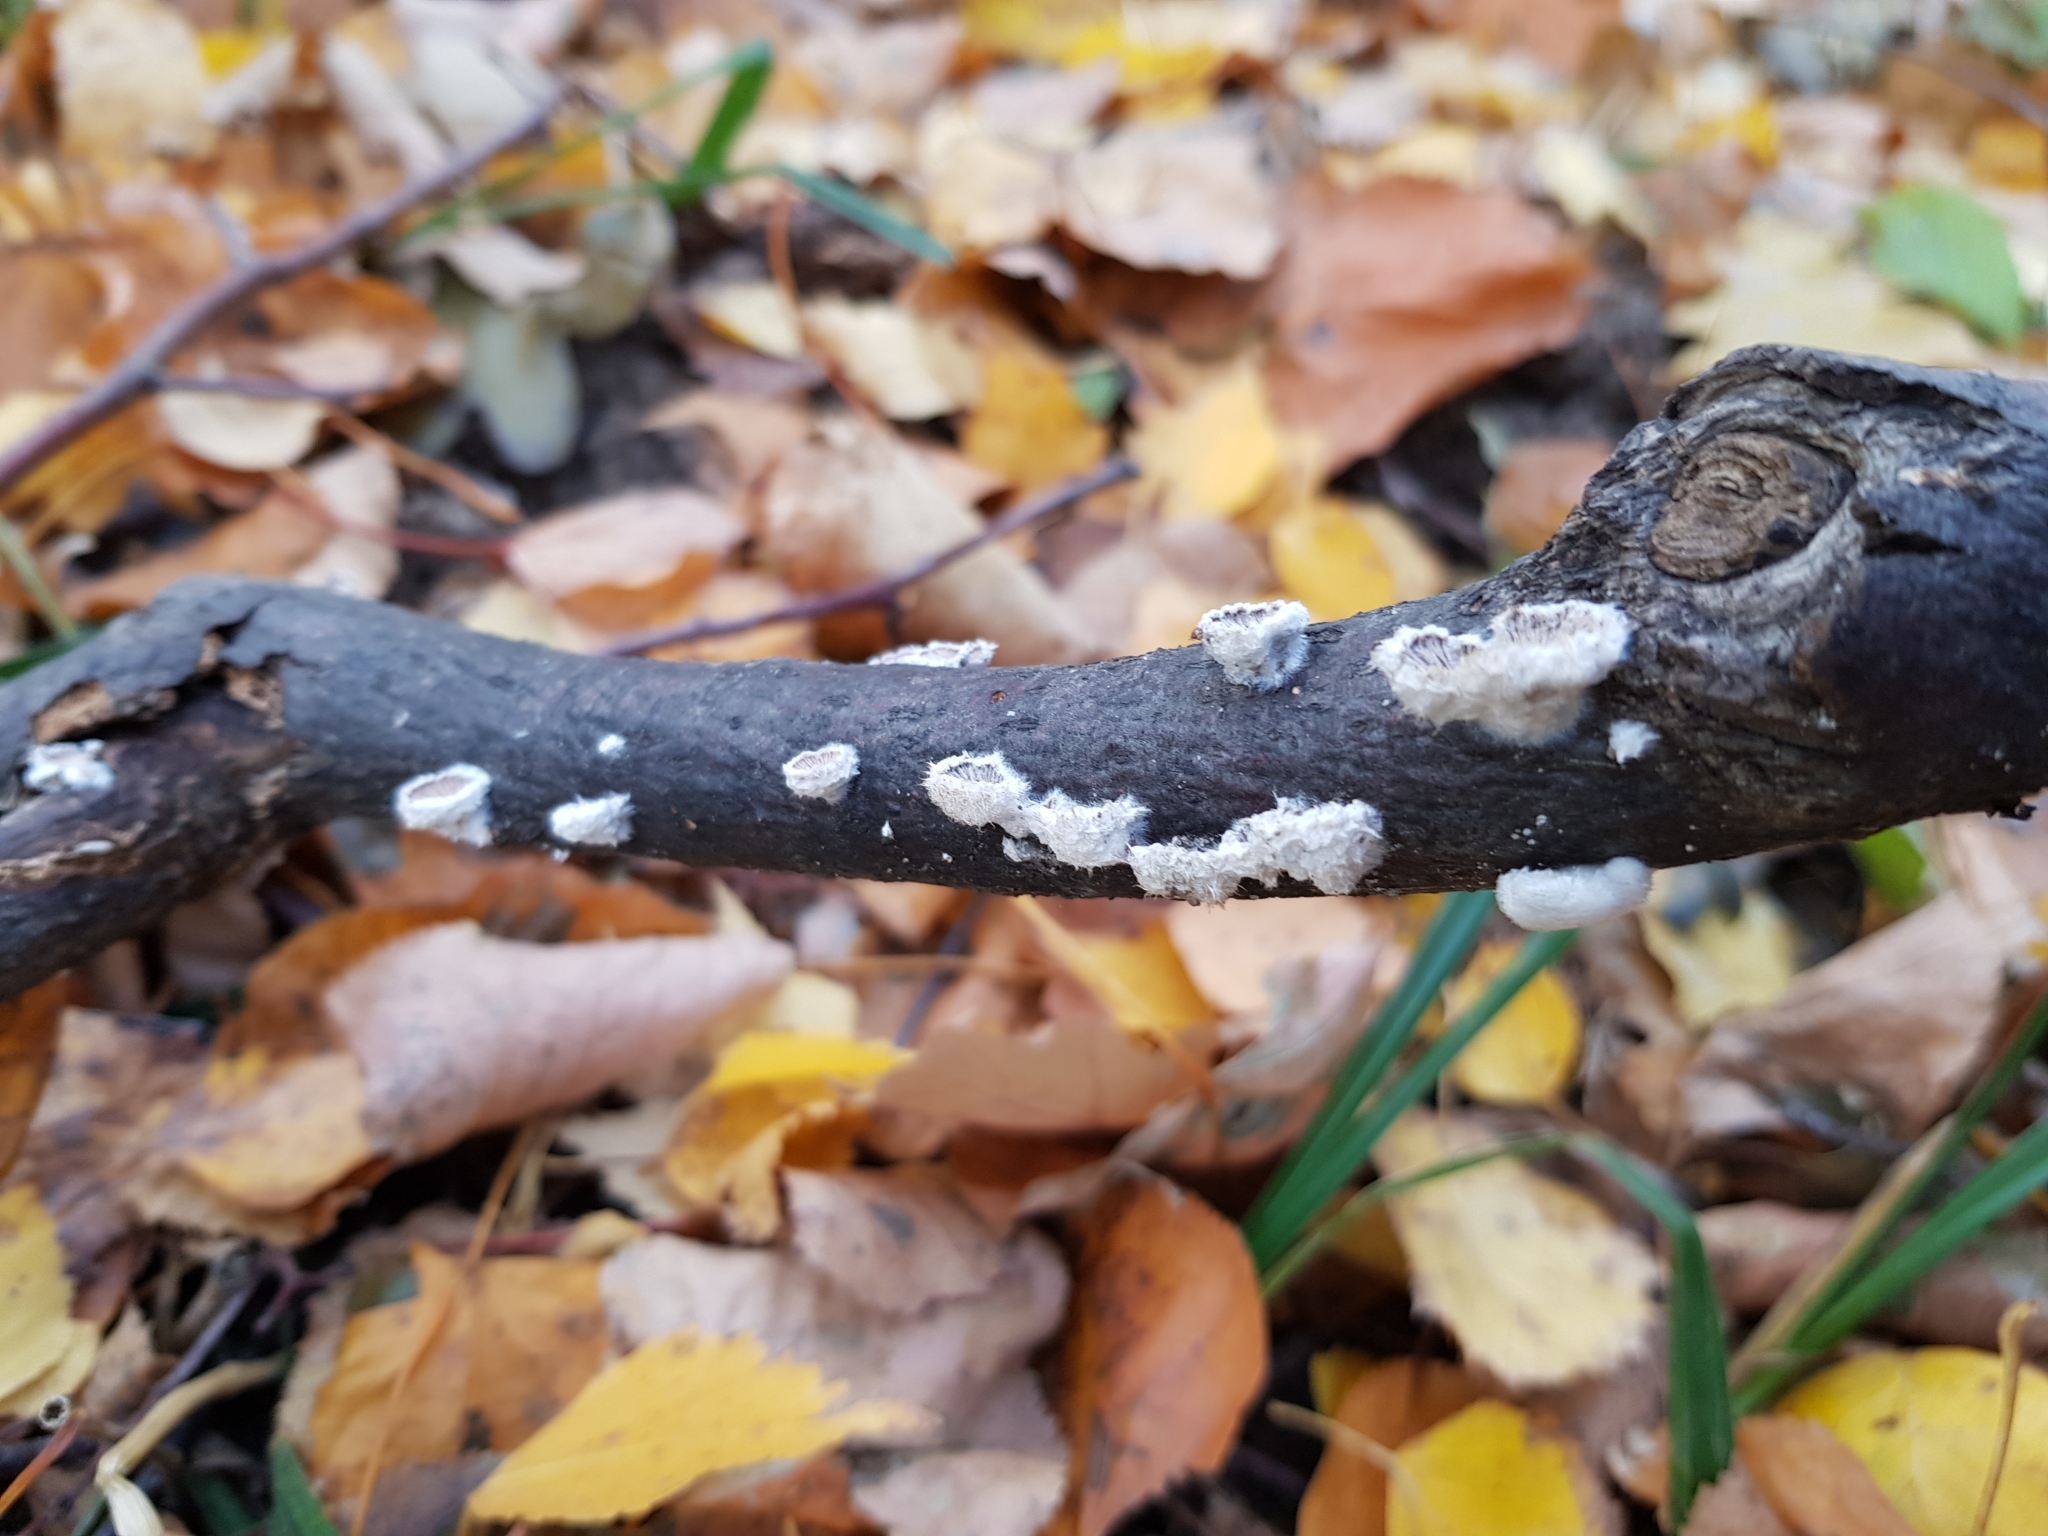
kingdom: Fungi
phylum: Basidiomycota
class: Agaricomycetes
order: Agaricales
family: Schizophyllaceae
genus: Schizophyllum
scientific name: Schizophyllum commune
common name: Common porecrust
